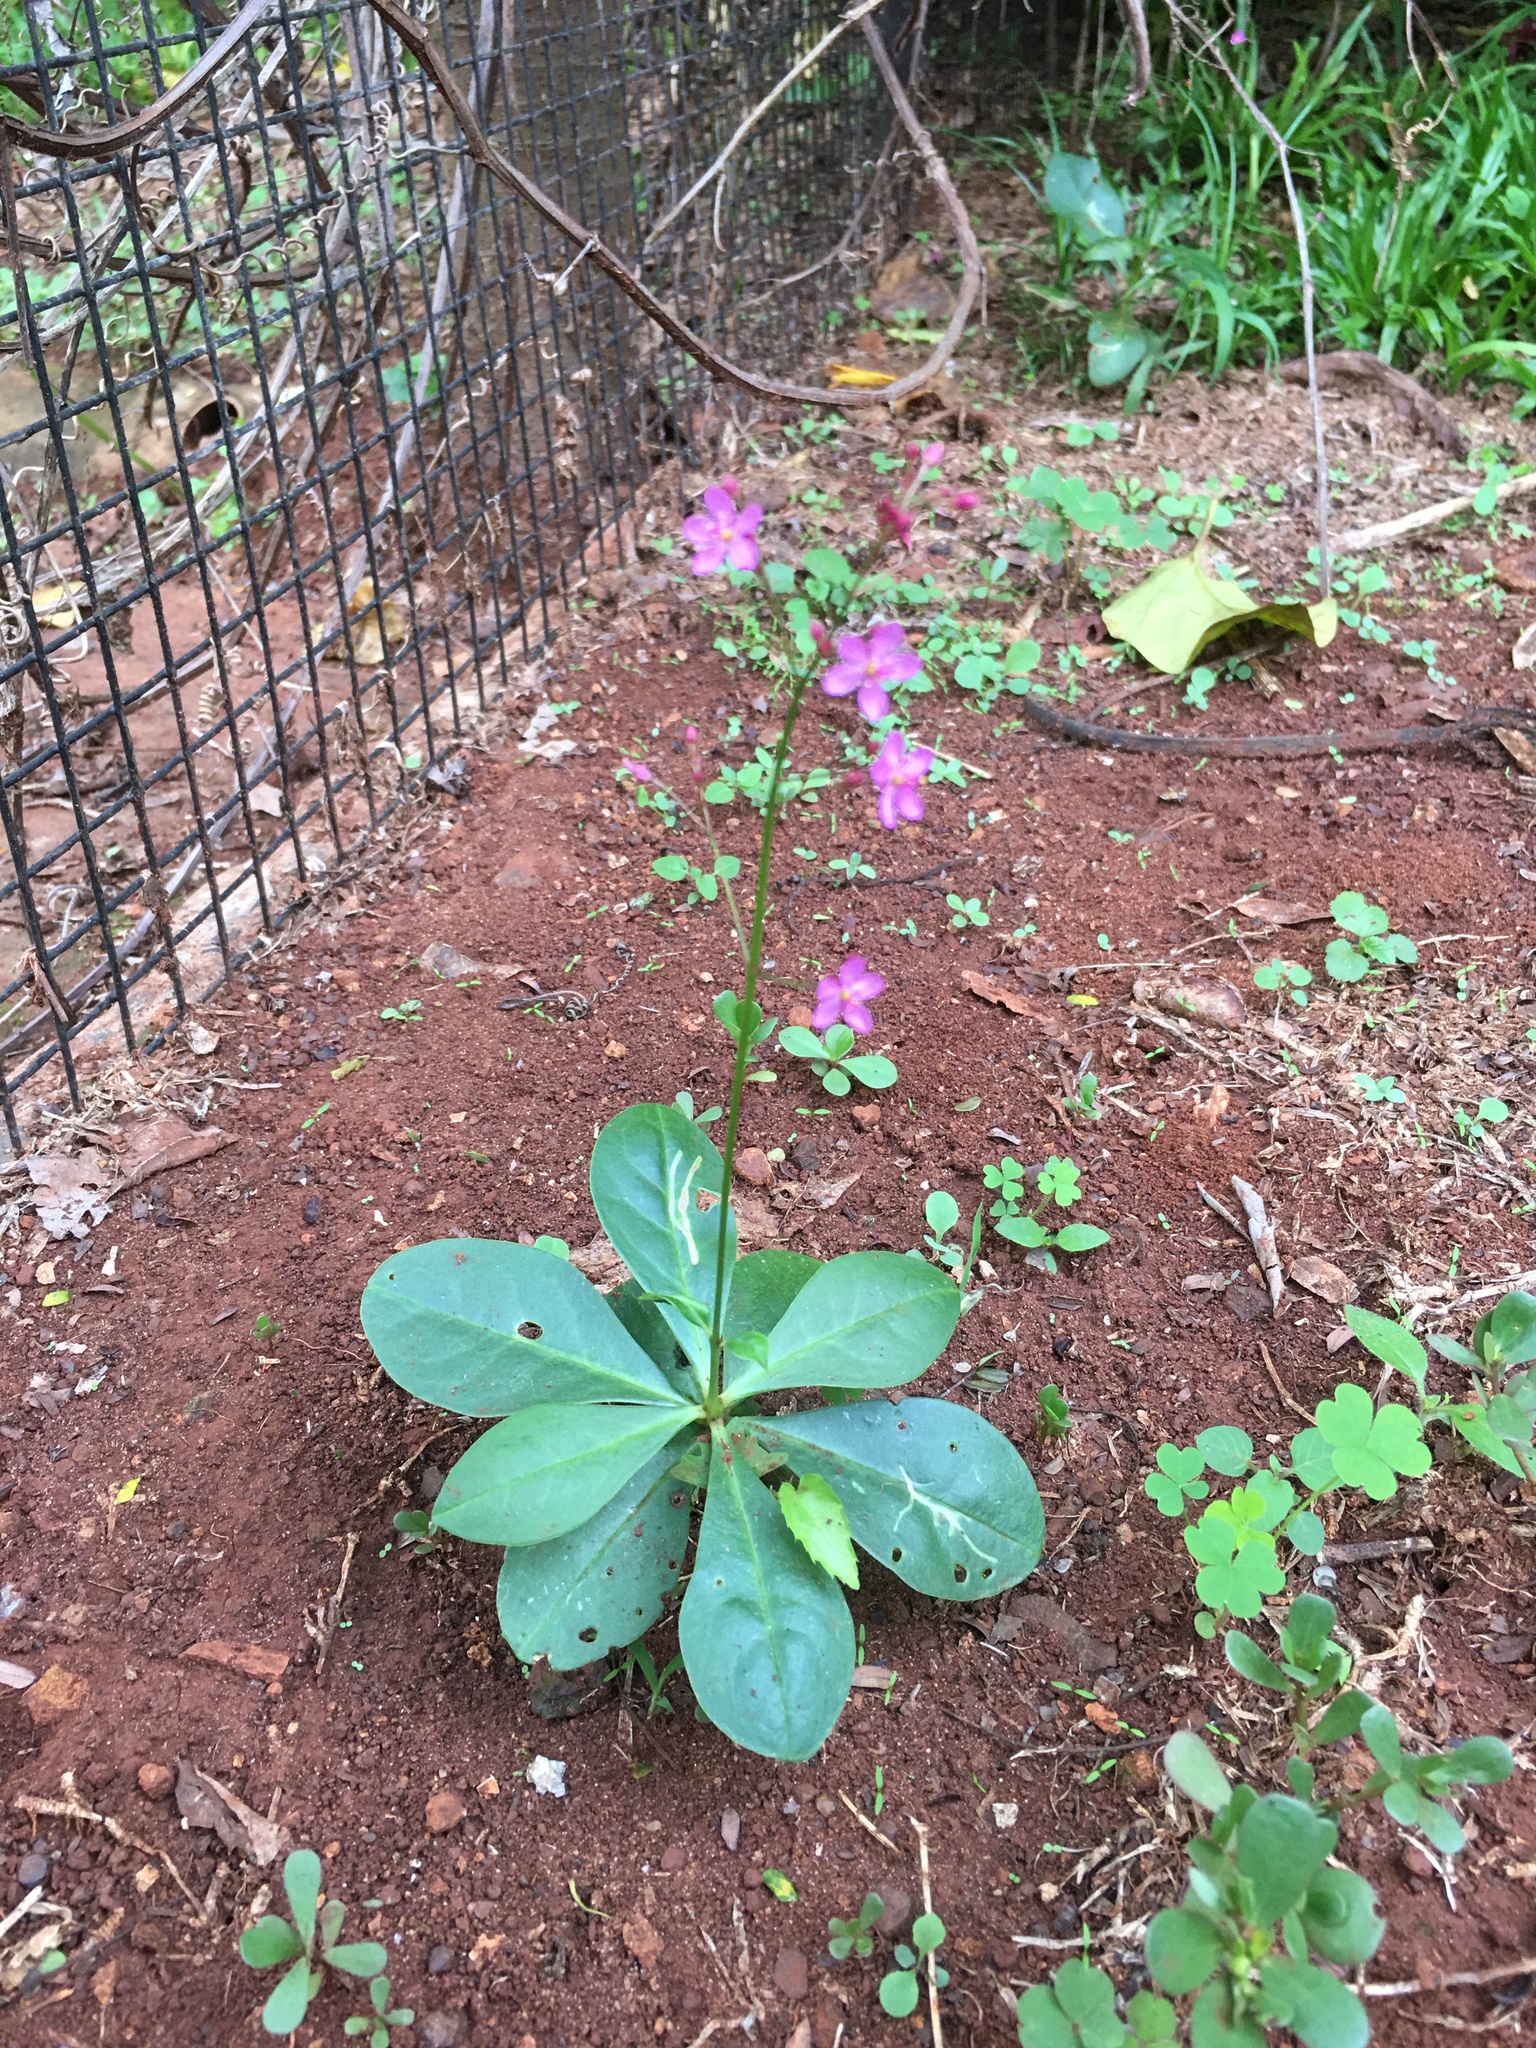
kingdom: Plantae
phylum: Tracheophyta
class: Magnoliopsida
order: Caryophyllales
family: Talinaceae
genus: Talinum
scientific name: Talinum paniculatum
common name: Jewels of opar
